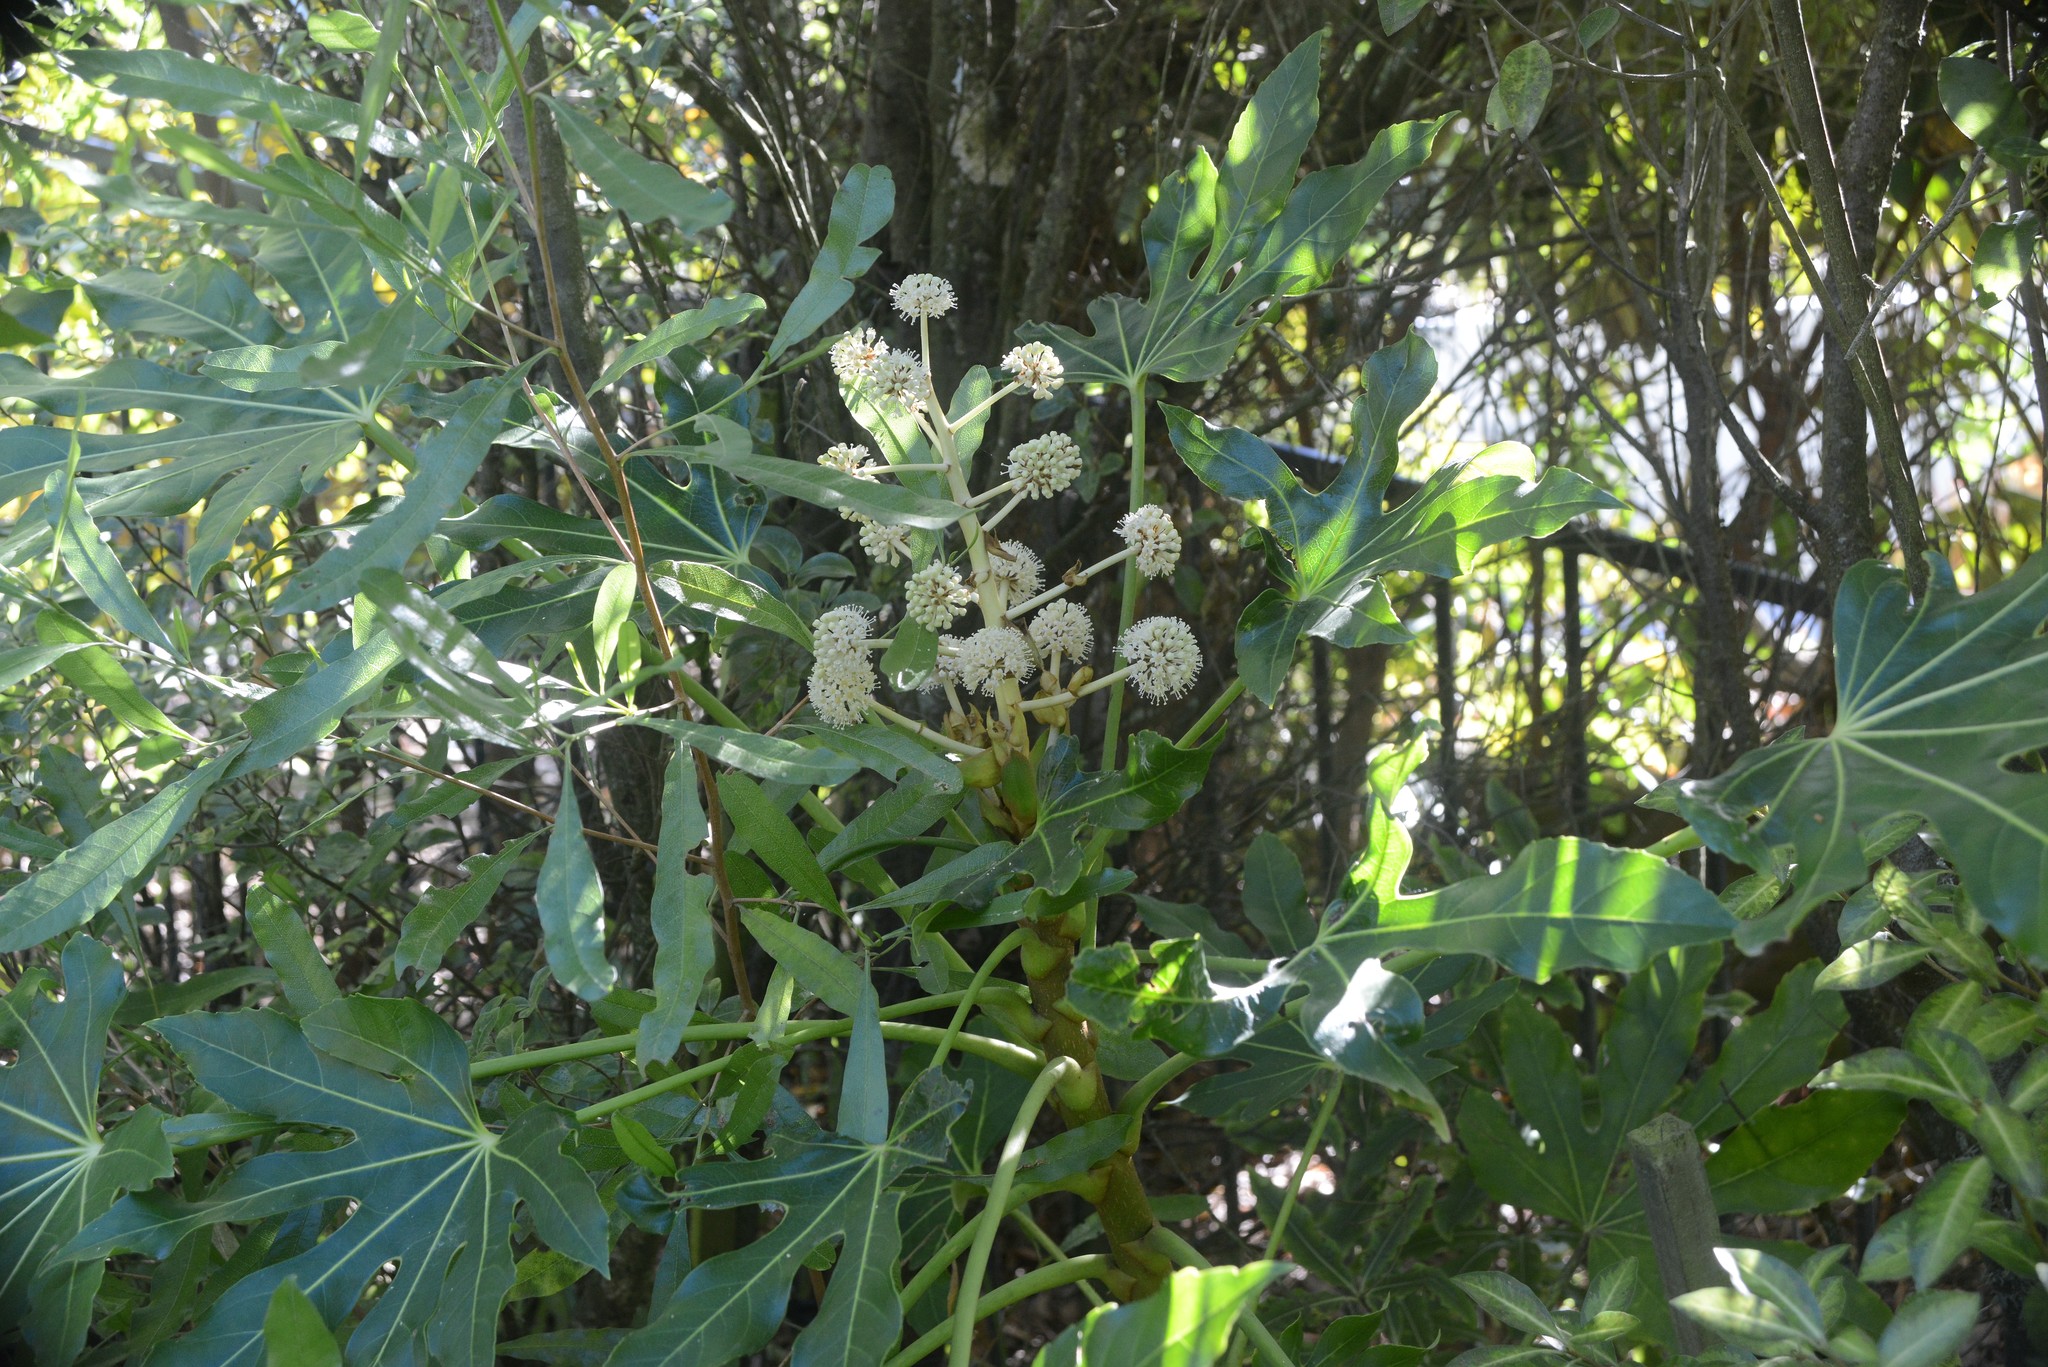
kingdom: Plantae
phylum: Tracheophyta
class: Magnoliopsida
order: Apiales
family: Araliaceae
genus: Fatsia
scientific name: Fatsia japonica
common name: Fatsia
